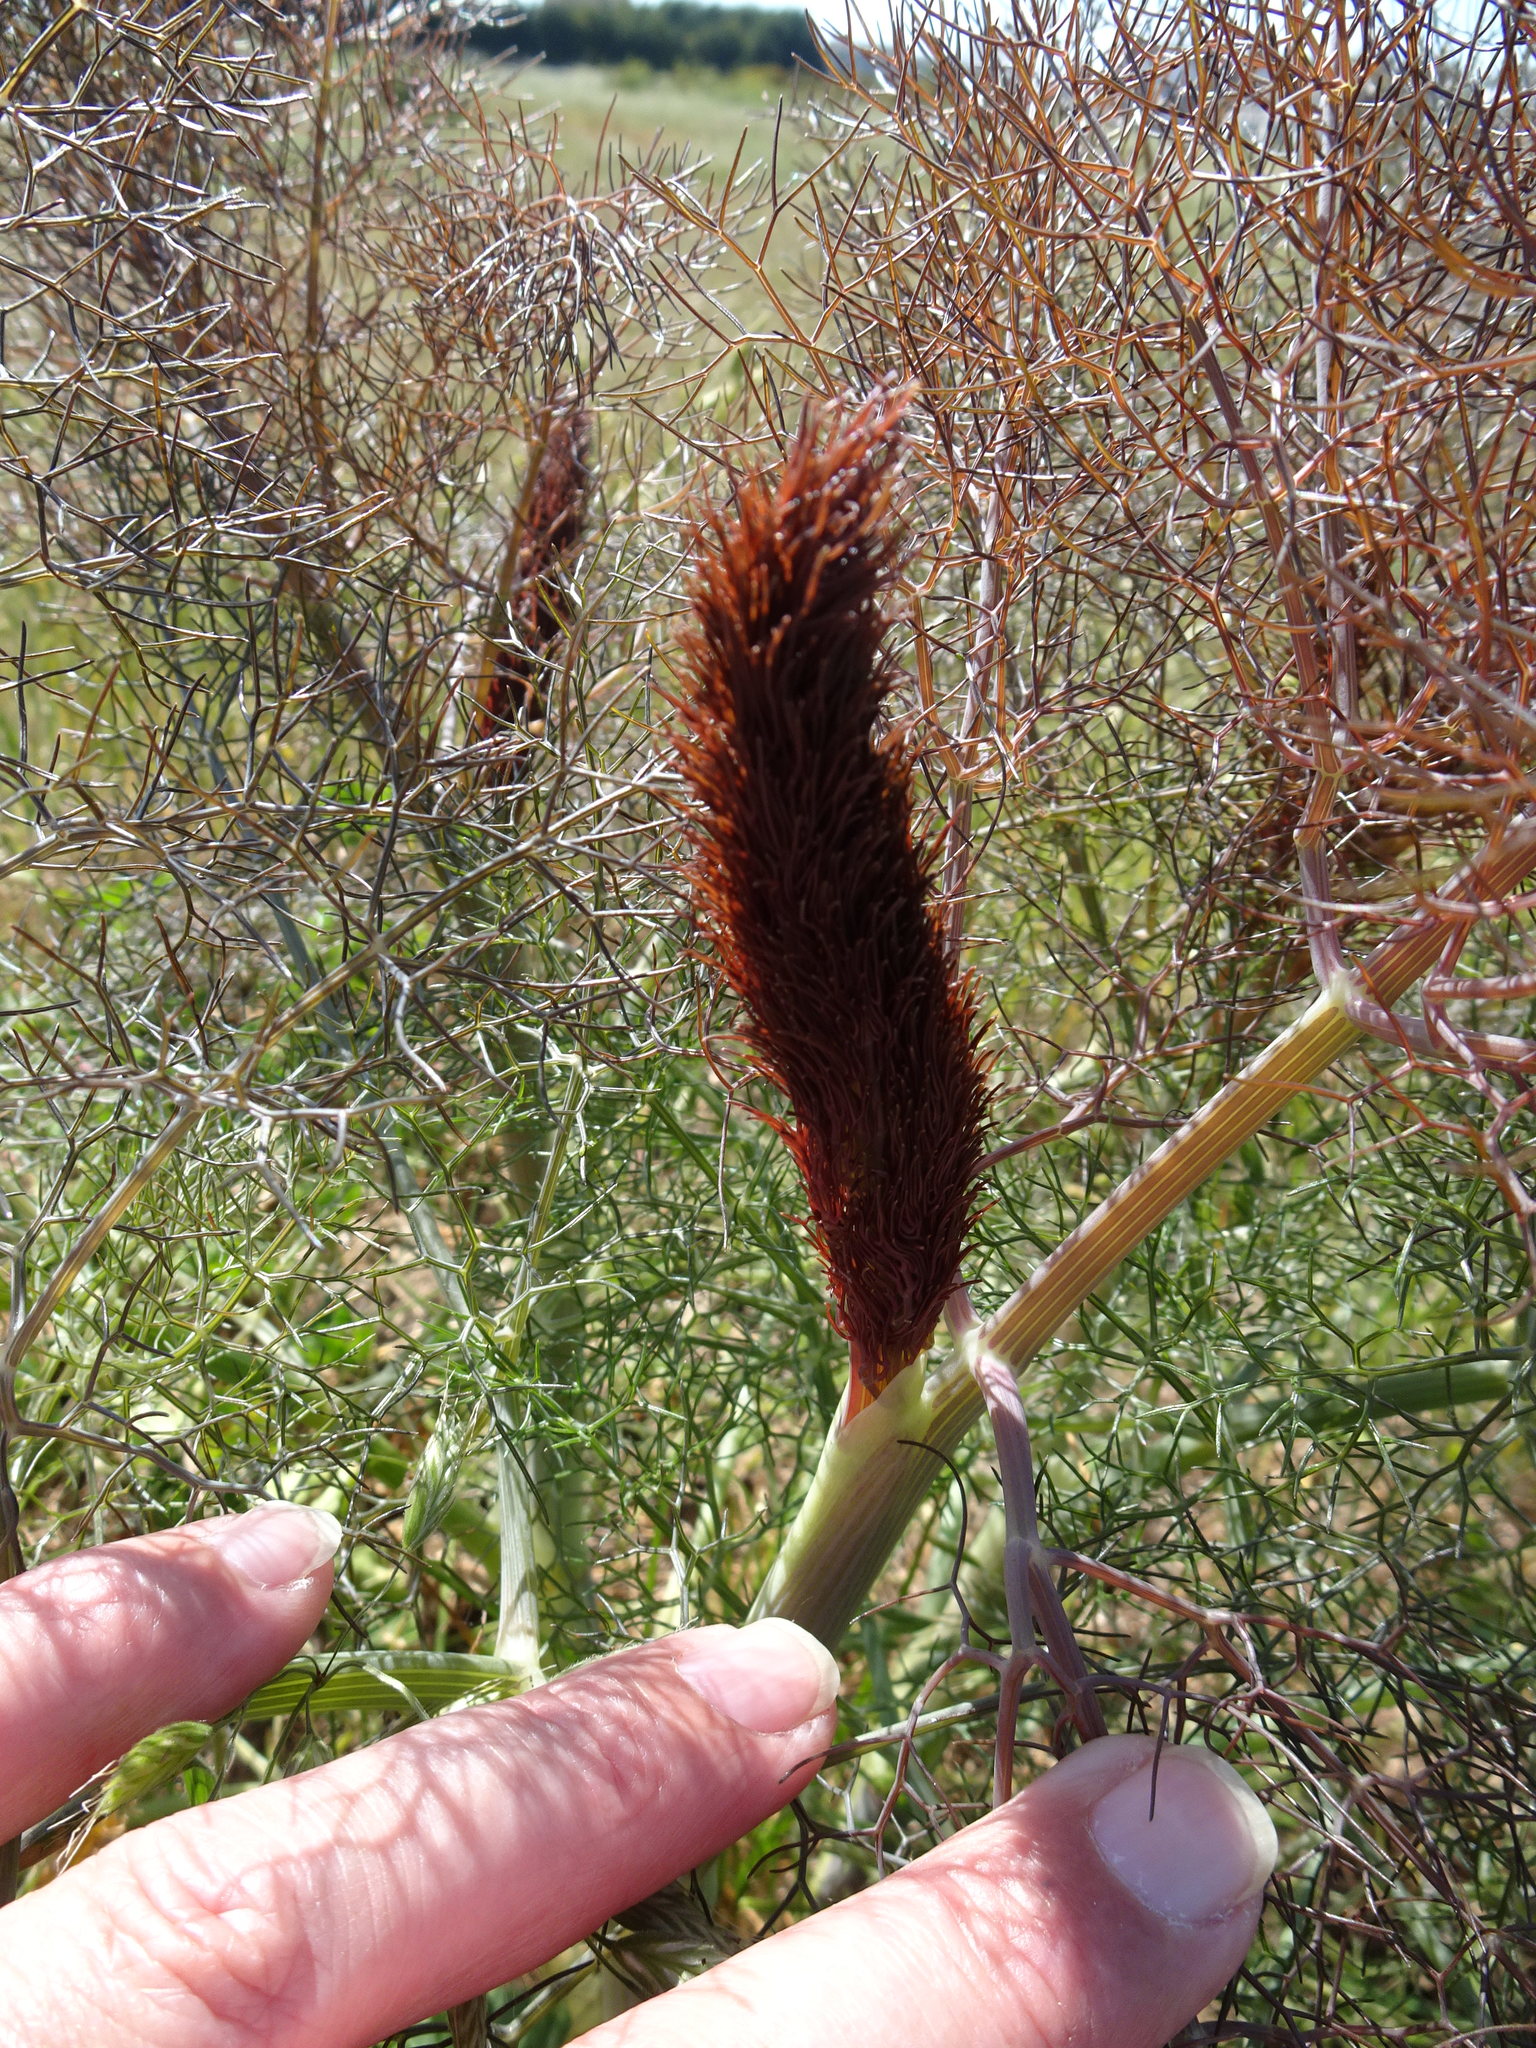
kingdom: Plantae
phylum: Tracheophyta
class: Magnoliopsida
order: Apiales
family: Apiaceae
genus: Foeniculum
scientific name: Foeniculum vulgare
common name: Fennel
